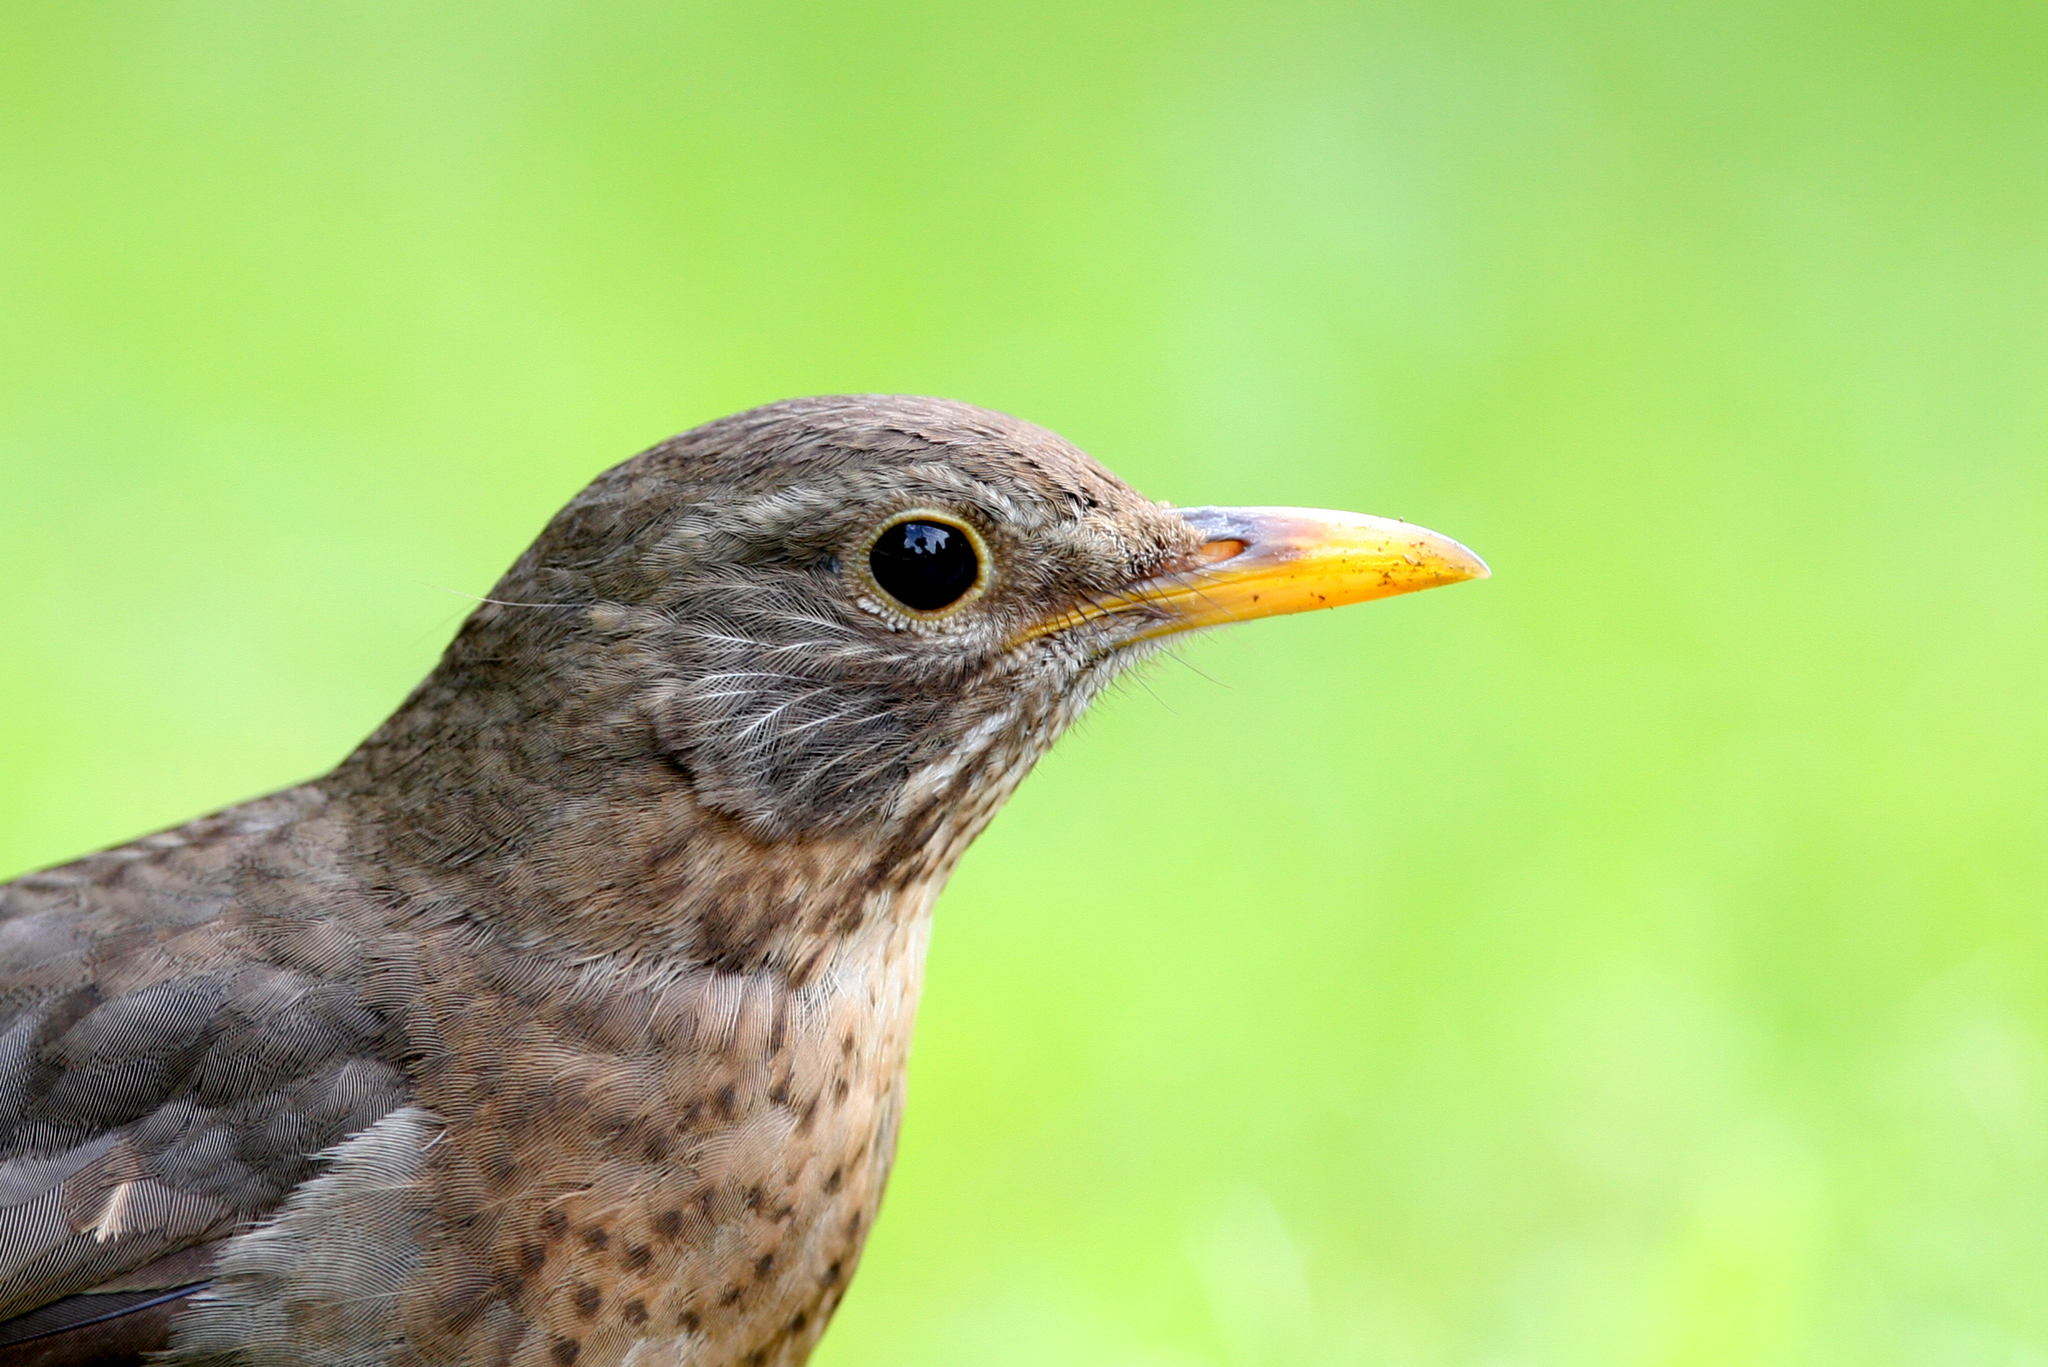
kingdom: Animalia
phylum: Chordata
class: Aves
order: Passeriformes
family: Turdidae
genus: Turdus
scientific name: Turdus merula
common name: Common blackbird
